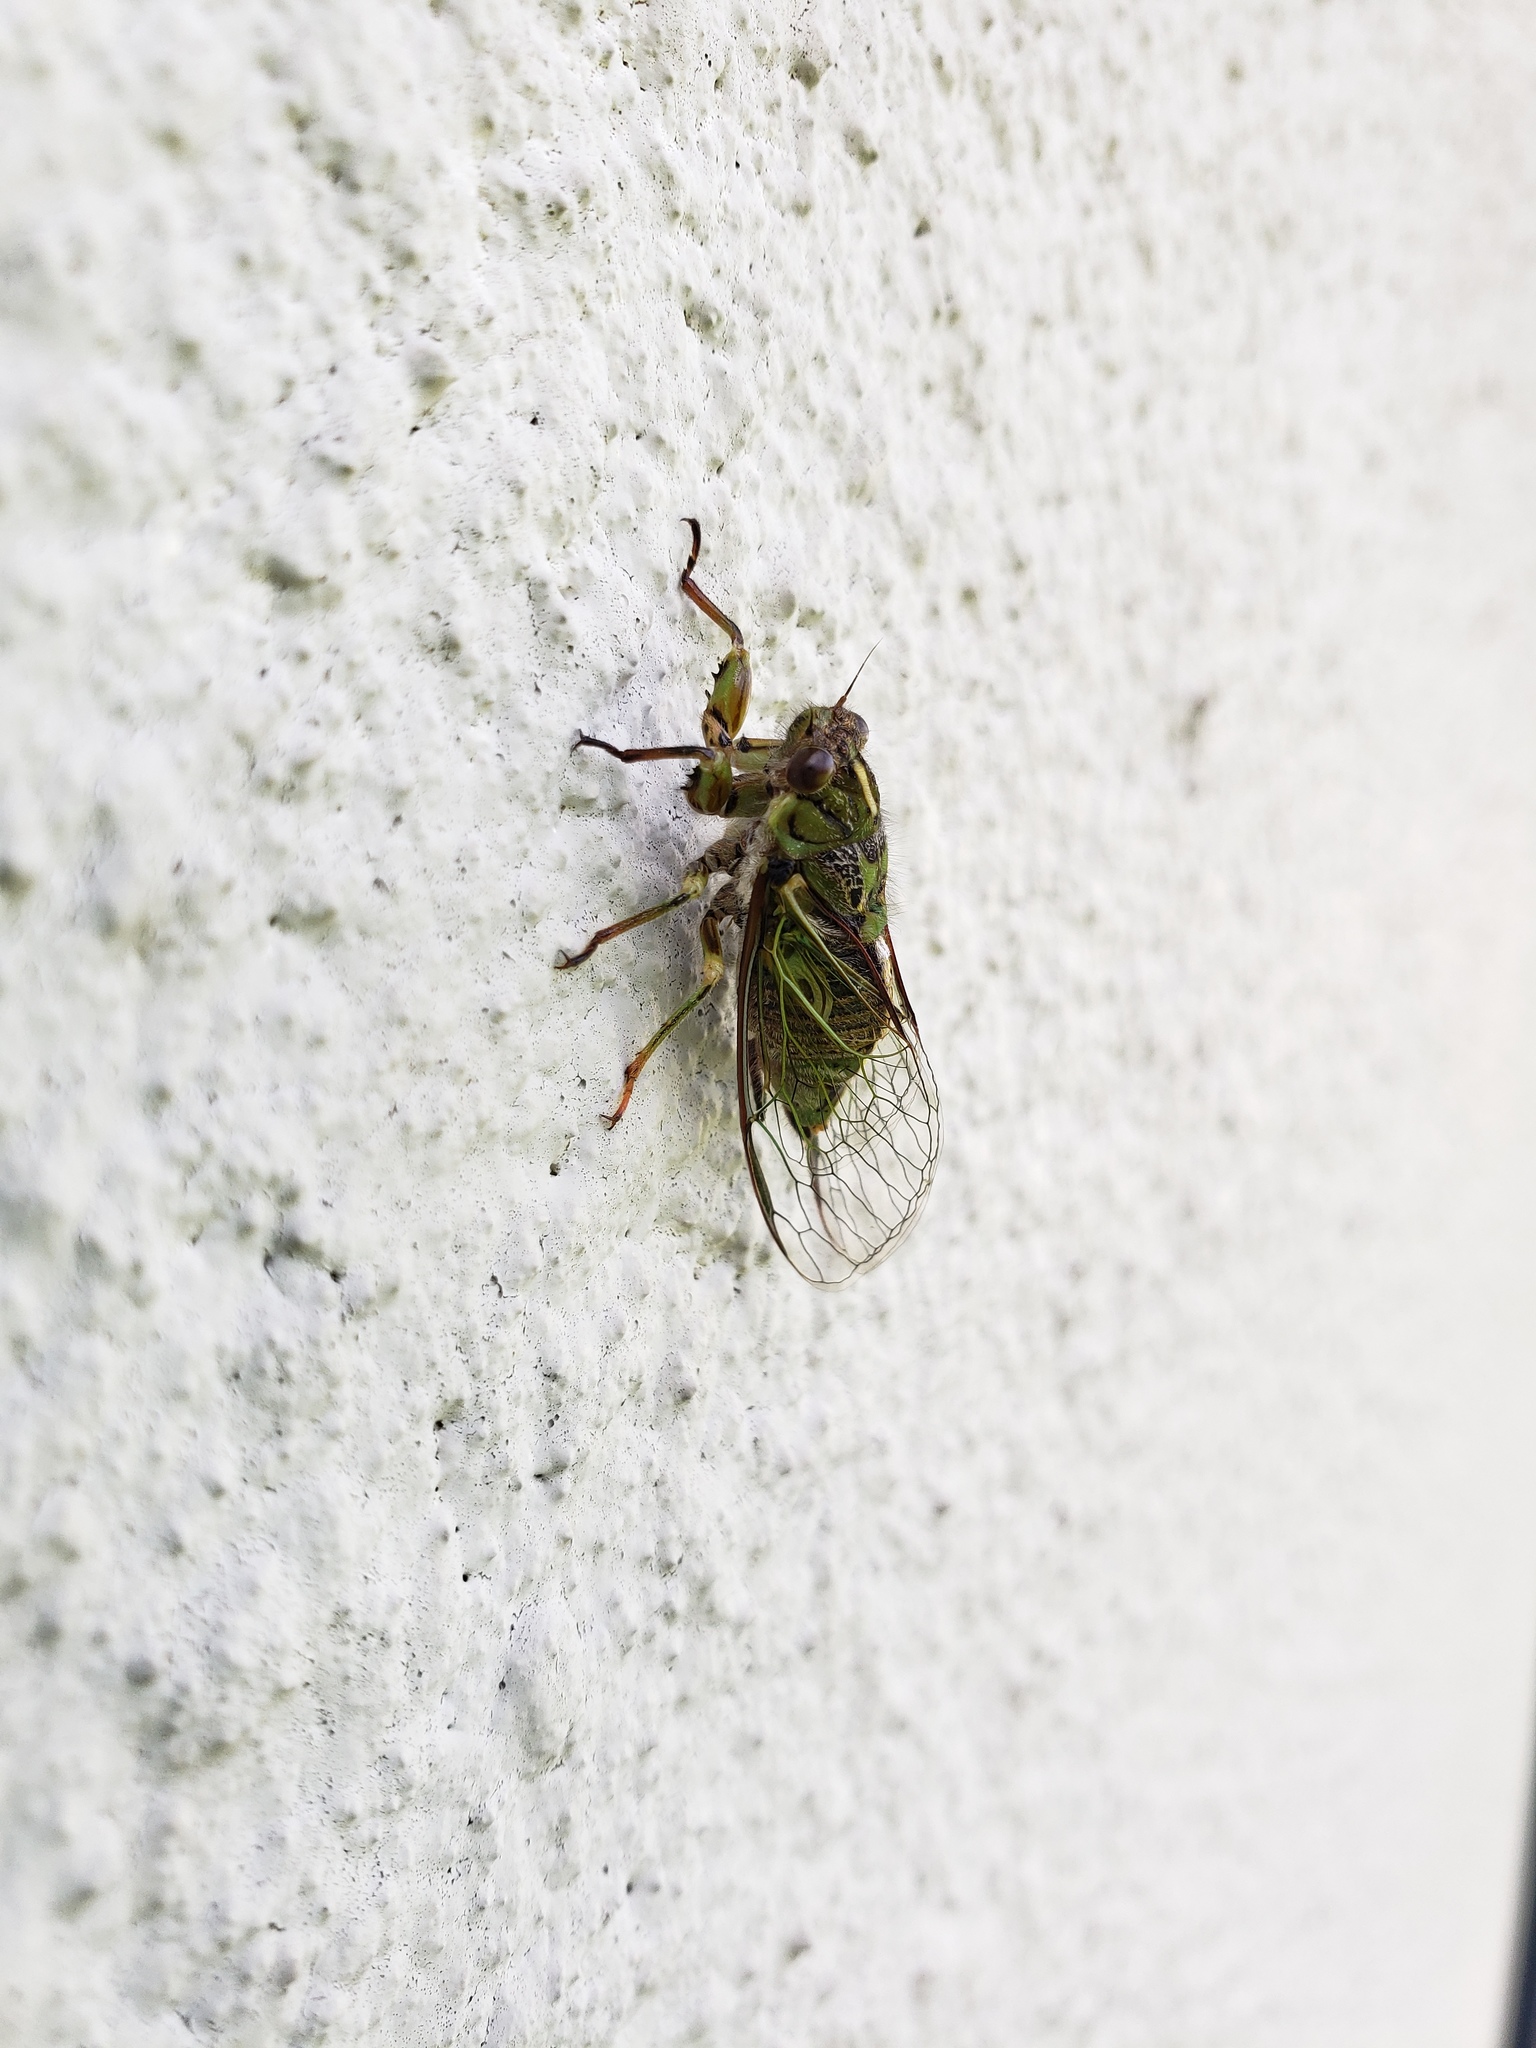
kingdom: Animalia
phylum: Arthropoda
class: Insecta
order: Hemiptera
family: Cicadidae
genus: Kikihia
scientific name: Kikihia rosea
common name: Murihiku cicada
